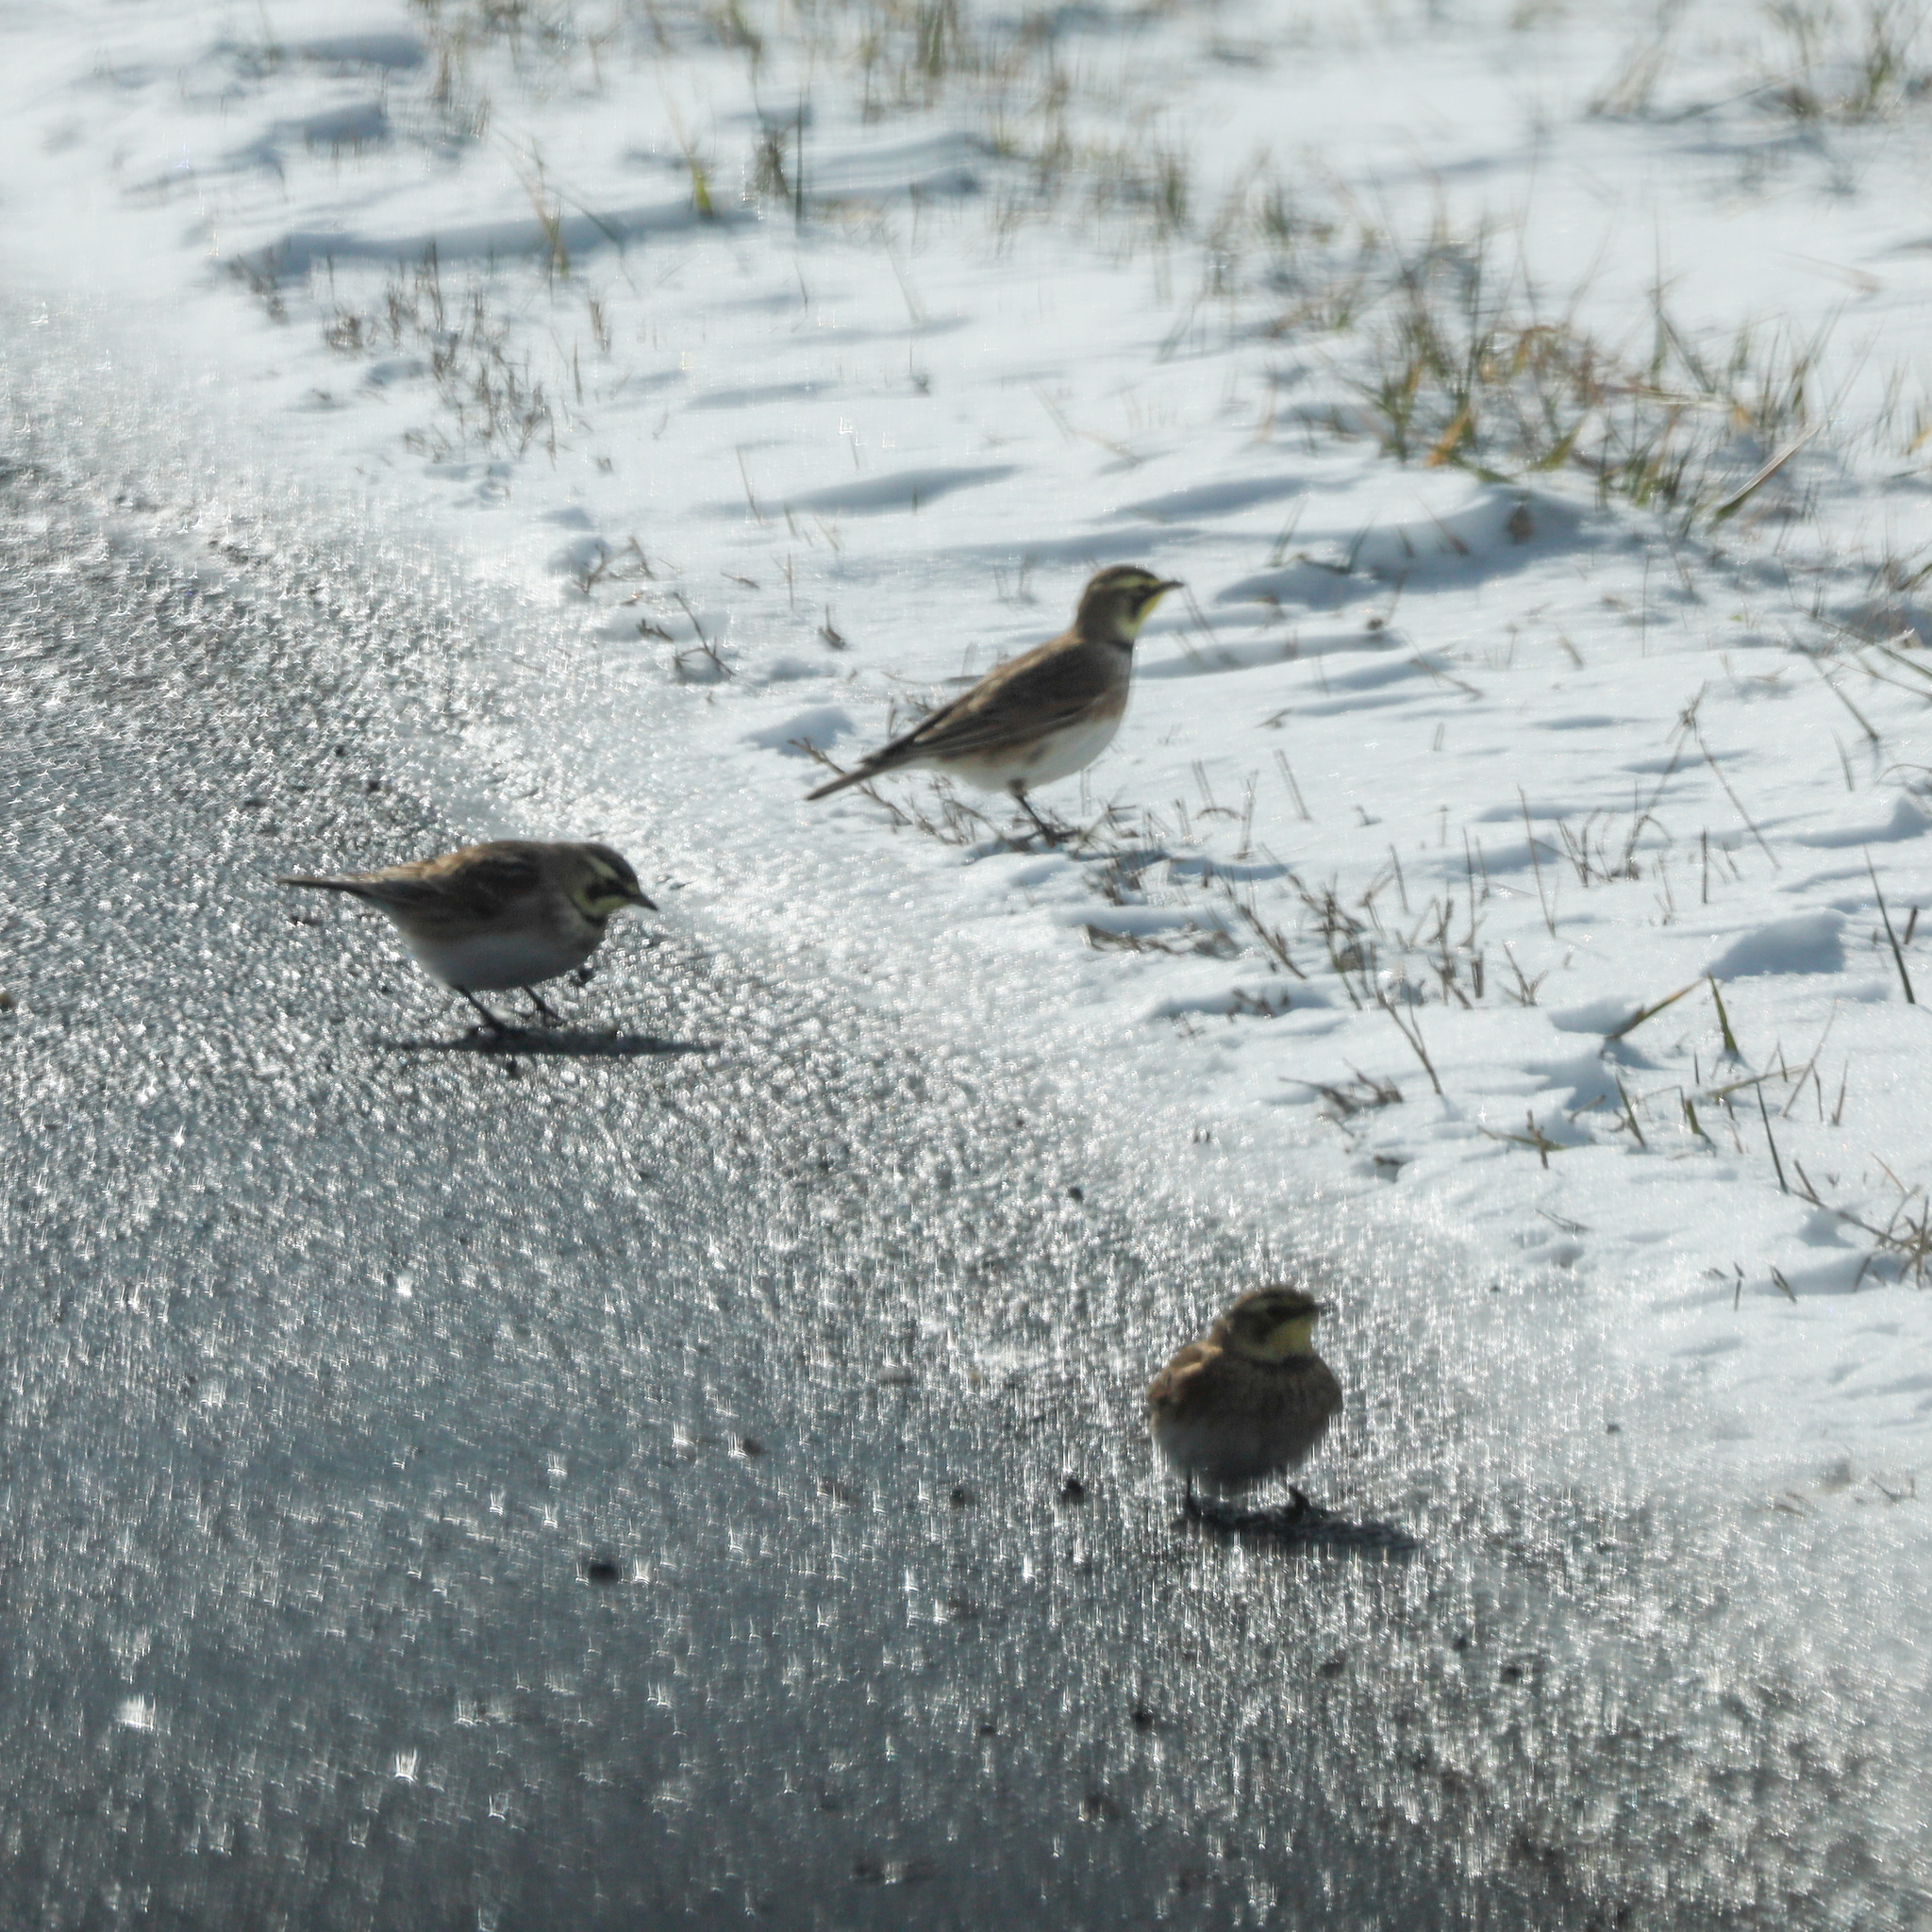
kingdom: Animalia
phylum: Chordata
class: Aves
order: Passeriformes
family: Alaudidae
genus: Eremophila
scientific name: Eremophila alpestris
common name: Horned lark
